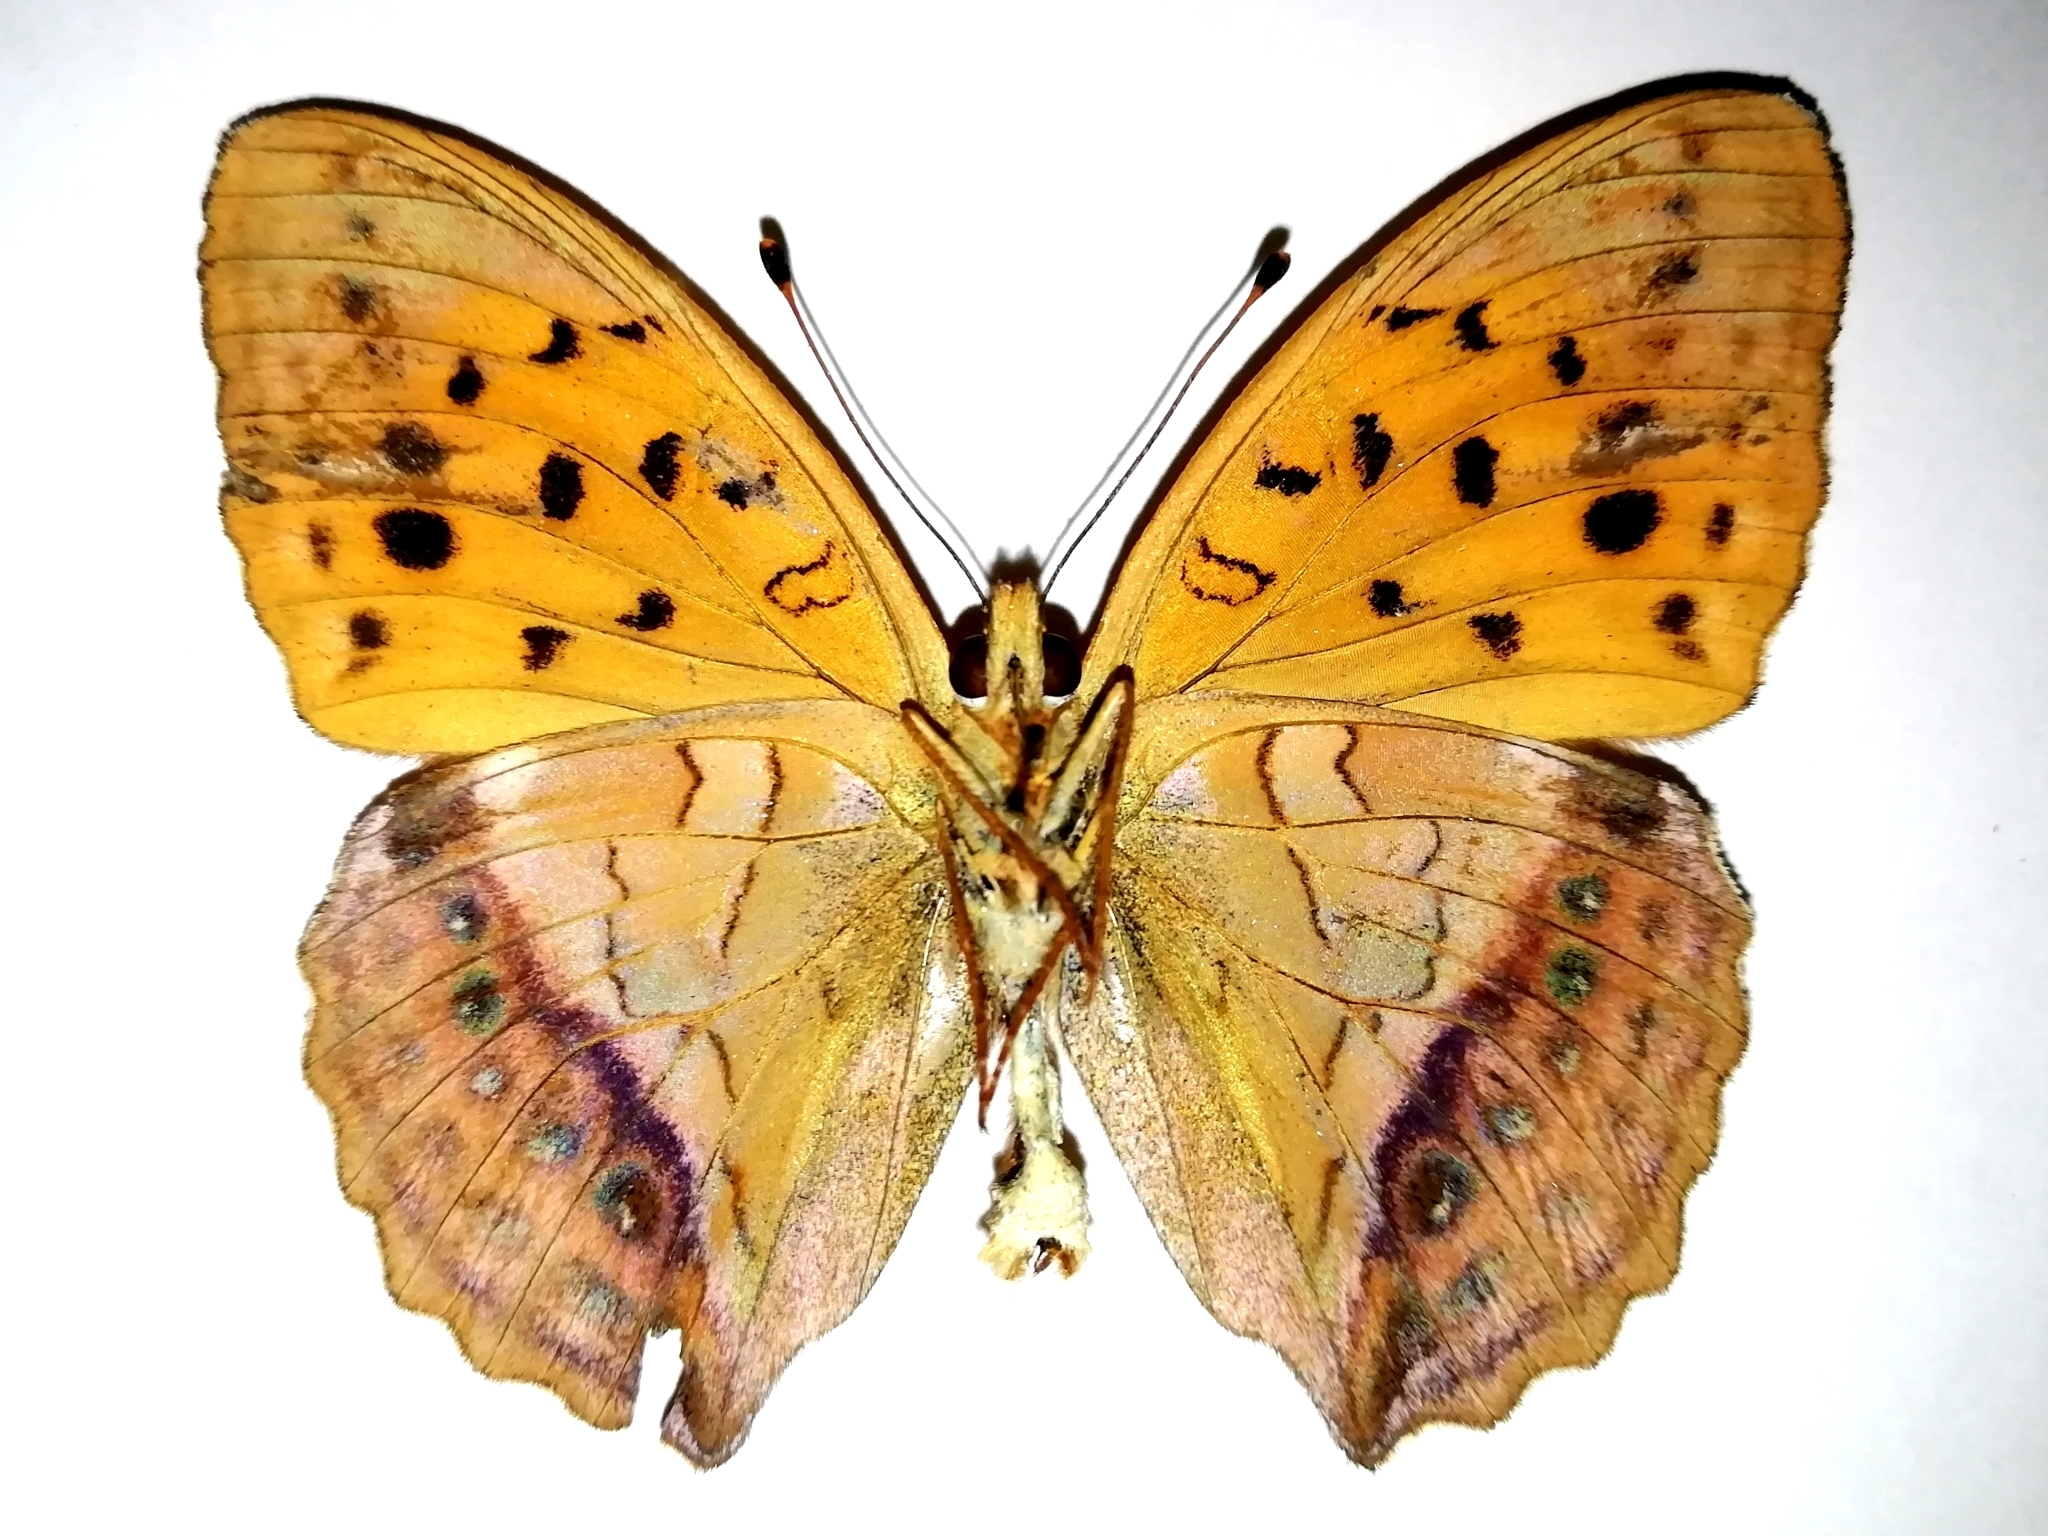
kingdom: Animalia
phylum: Arthropoda
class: Insecta
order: Lepidoptera
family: Nymphalidae
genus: Damora
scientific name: Damora sagana
